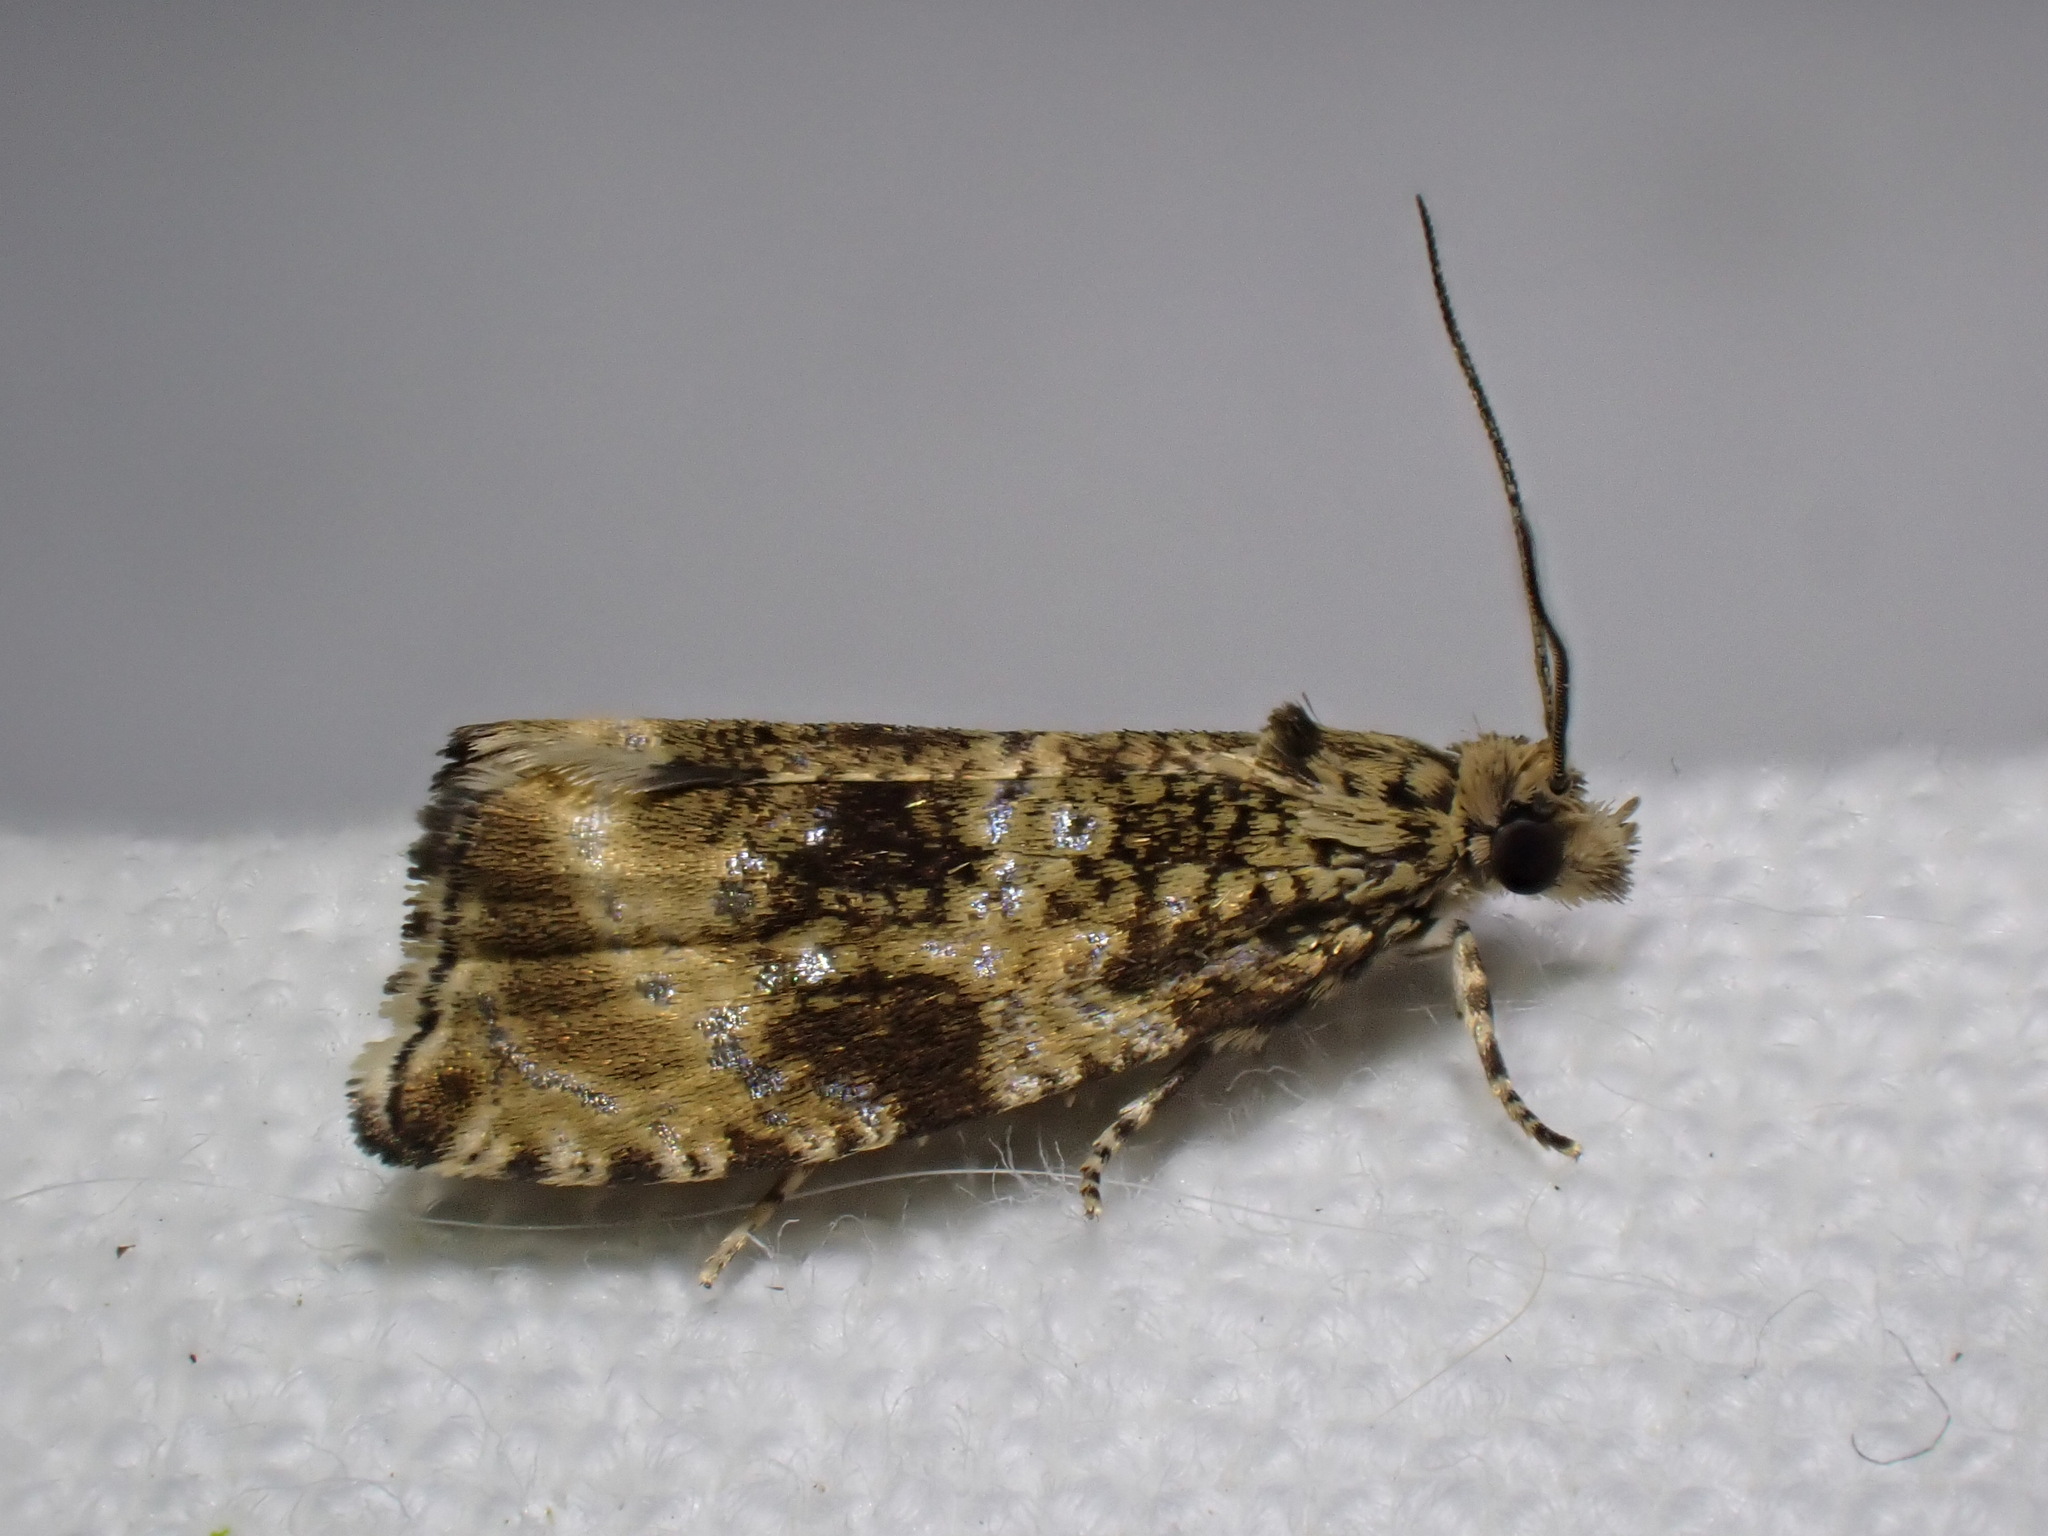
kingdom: Animalia
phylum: Arthropoda
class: Insecta
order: Lepidoptera
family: Tortricidae
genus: Syricoris
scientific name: Syricoris lacunana
